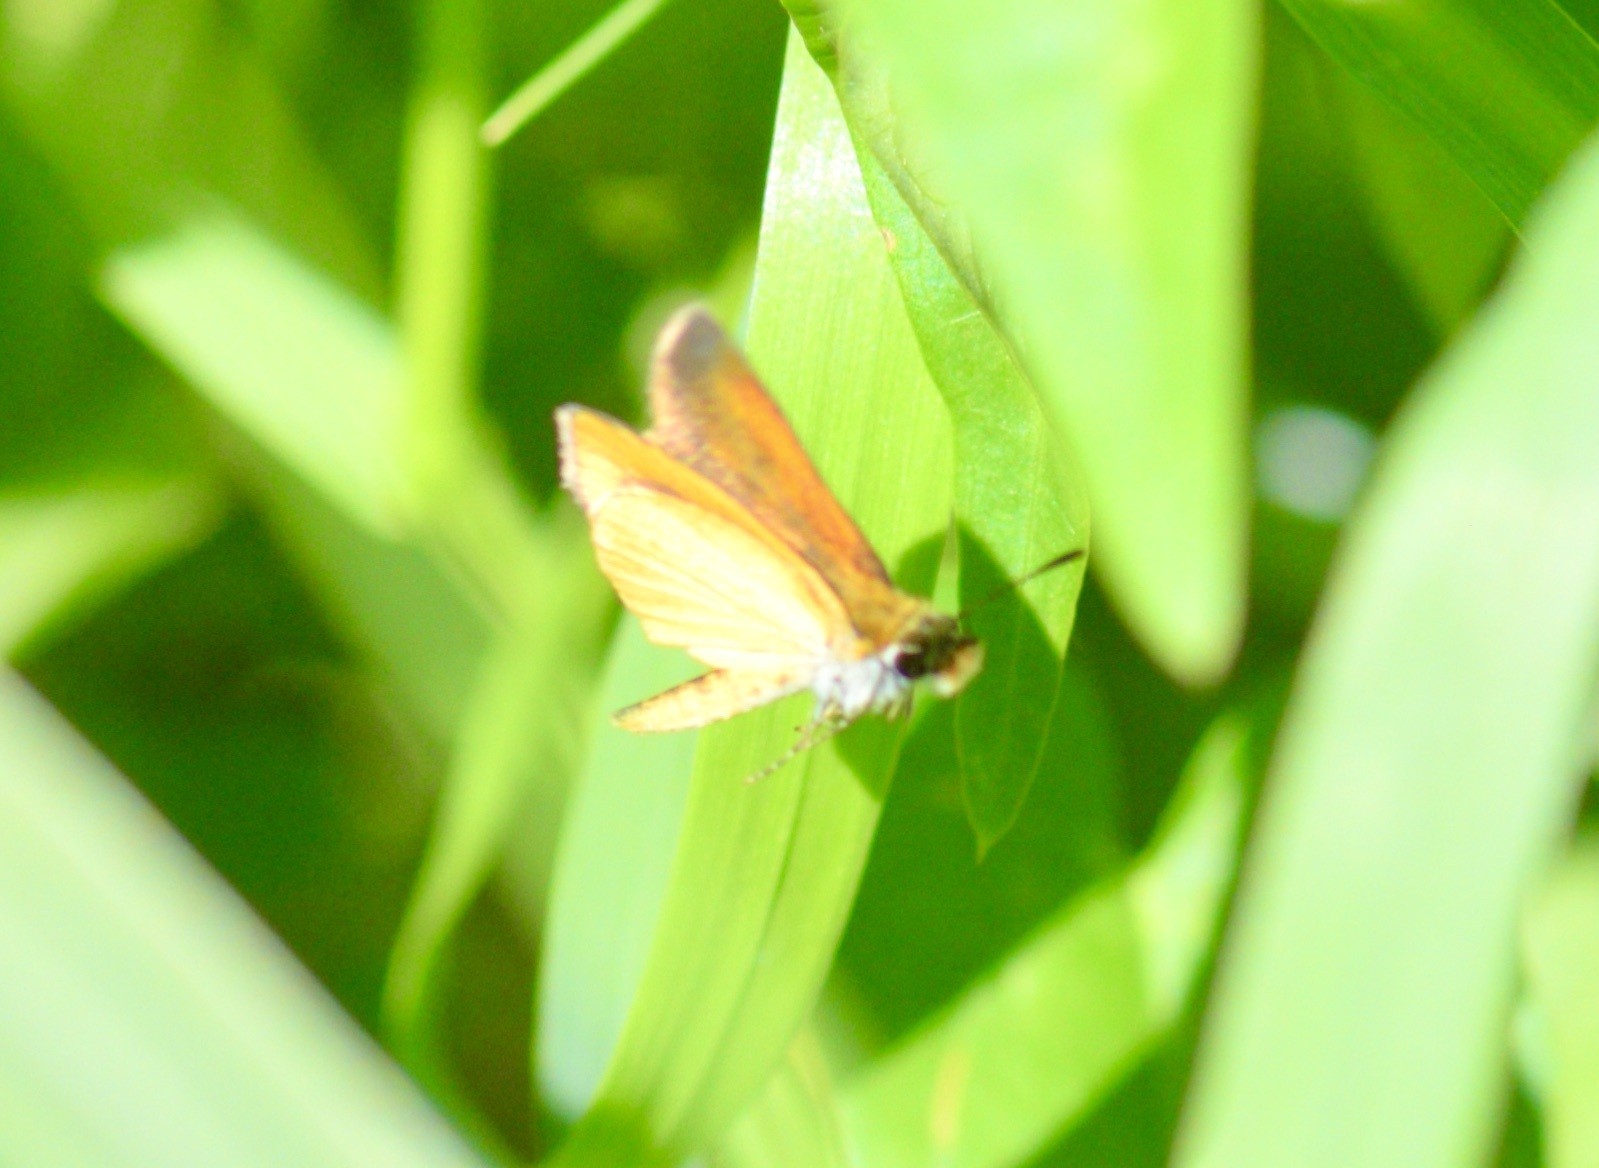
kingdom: Animalia
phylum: Arthropoda
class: Insecta
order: Lepidoptera
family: Hesperiidae
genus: Ancyloxypha
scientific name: Ancyloxypha numitor
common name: Least skipper
